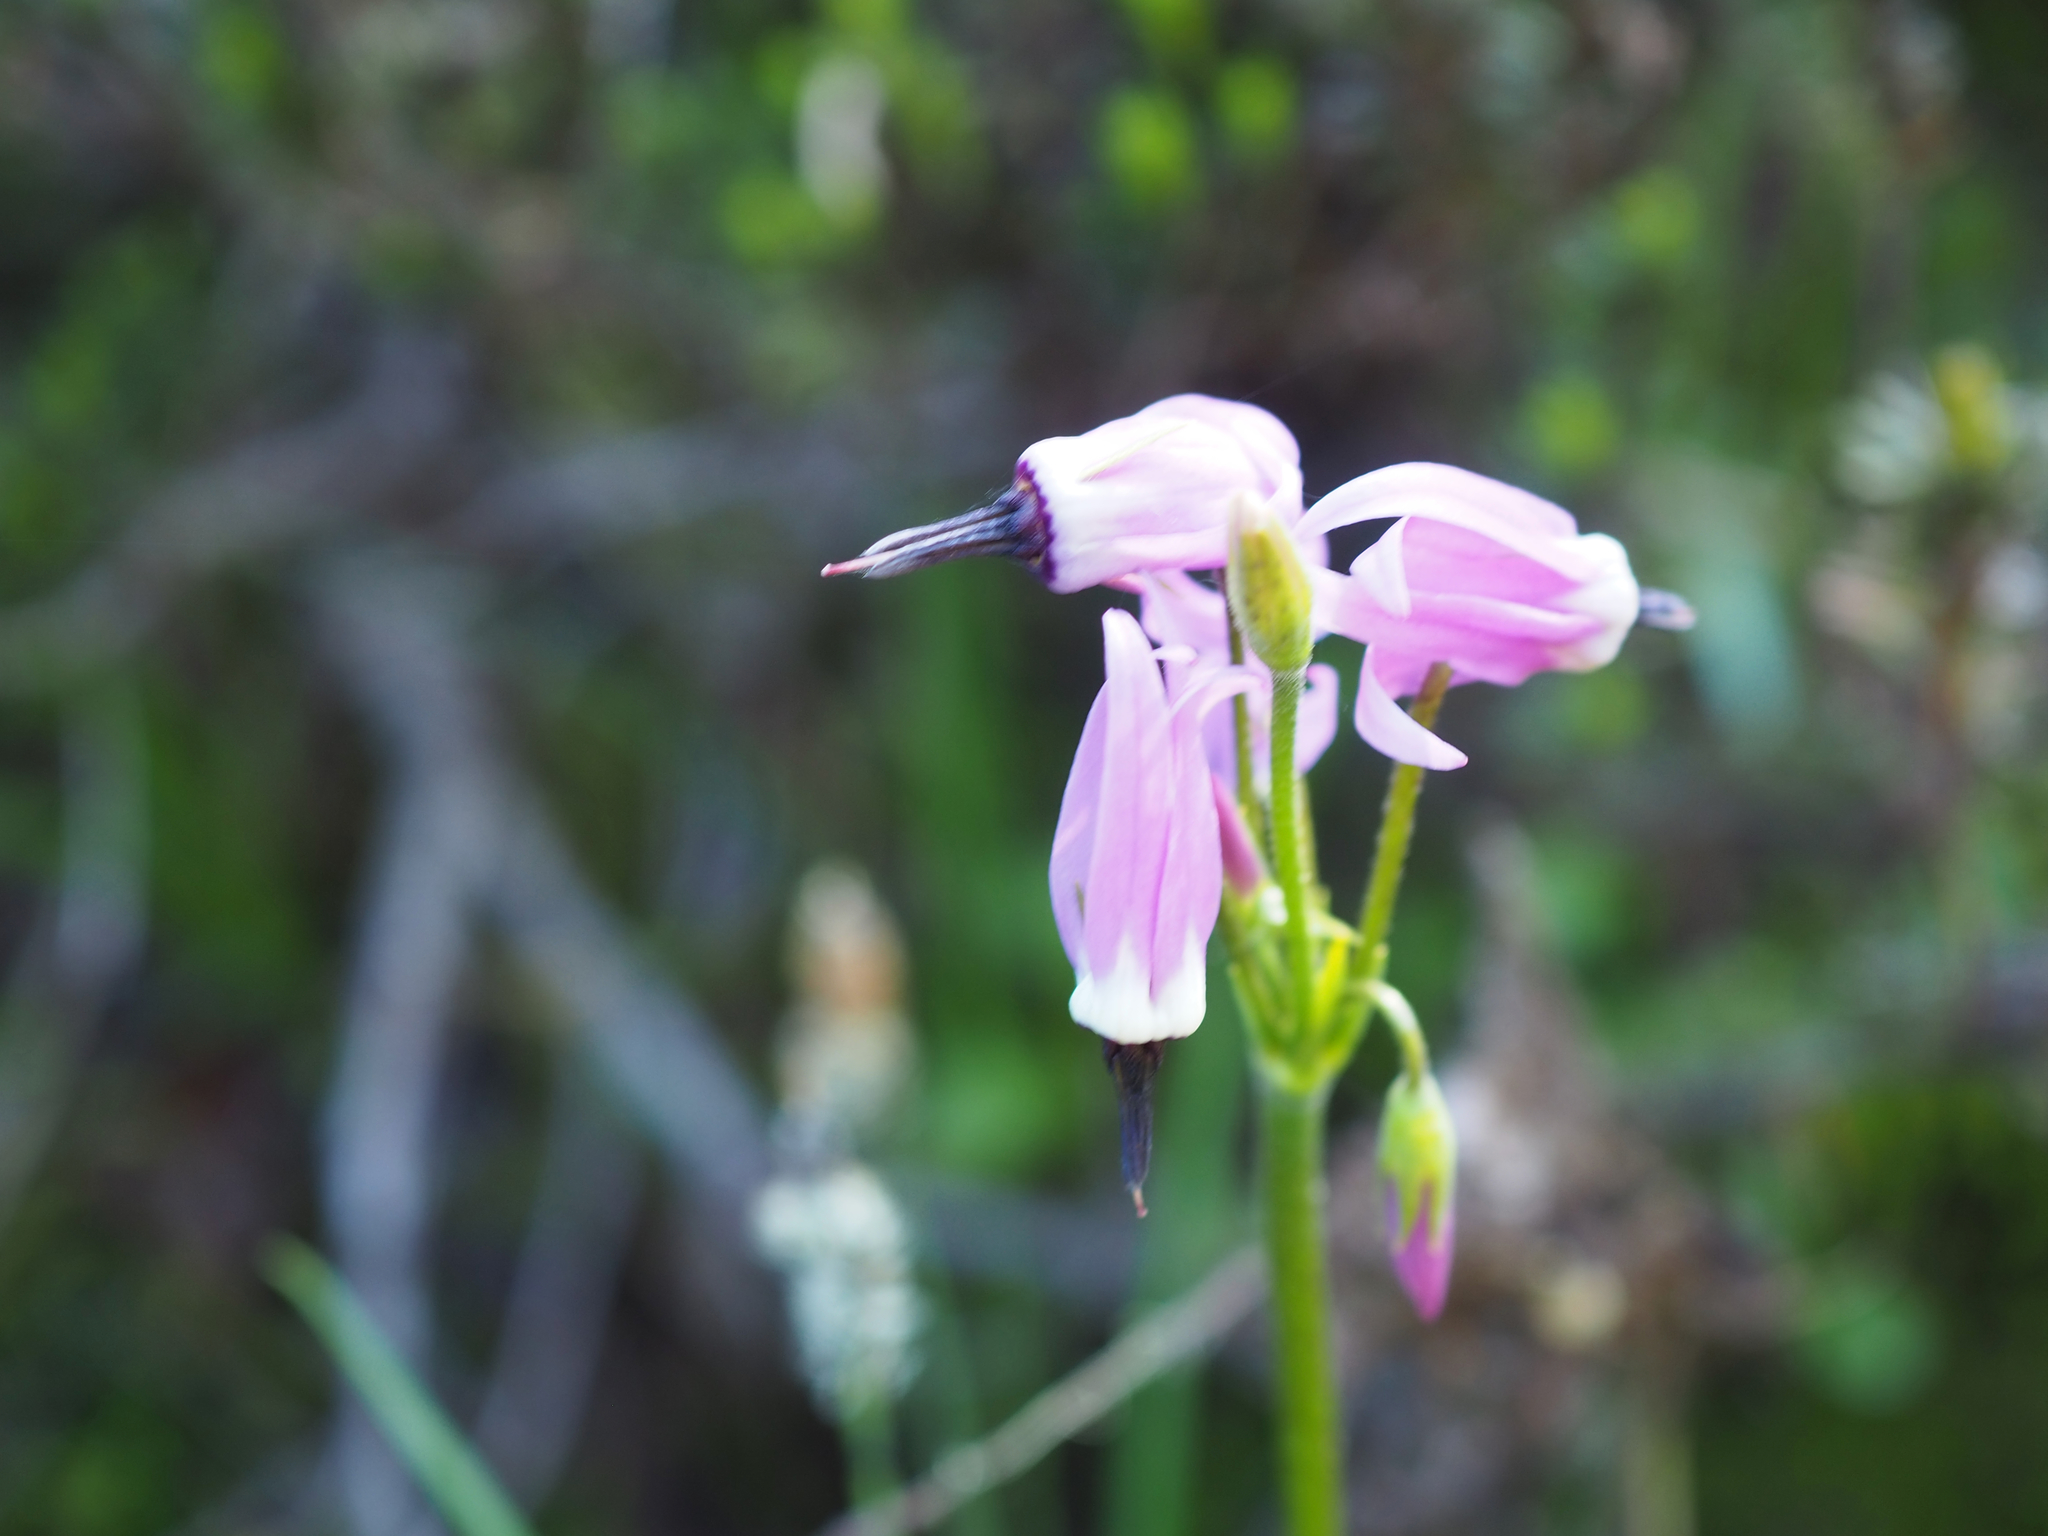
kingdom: Plantae
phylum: Tracheophyta
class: Magnoliopsida
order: Ericales
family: Primulaceae
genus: Dodecatheon
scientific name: Dodecatheon jeffreyanum
